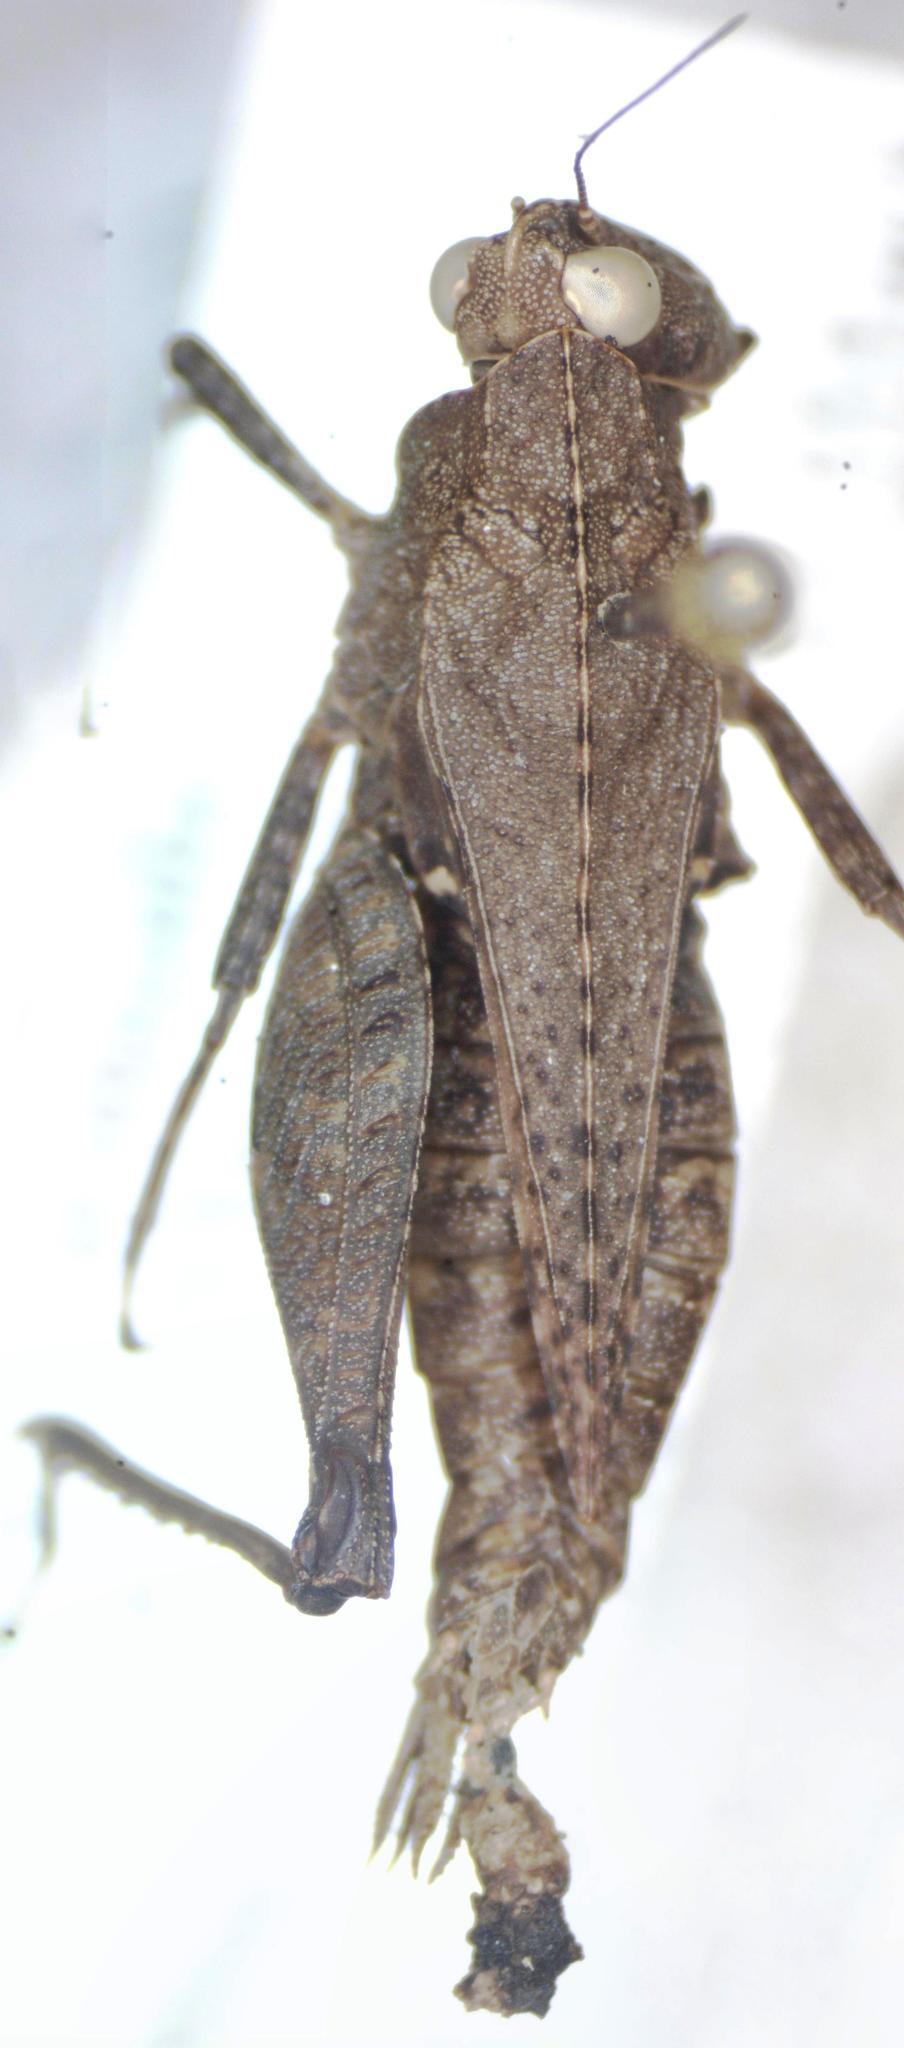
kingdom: Animalia
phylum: Arthropoda
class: Insecta
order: Orthoptera
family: Tetrigidae
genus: Tettigidea
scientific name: Tettigidea laterale
